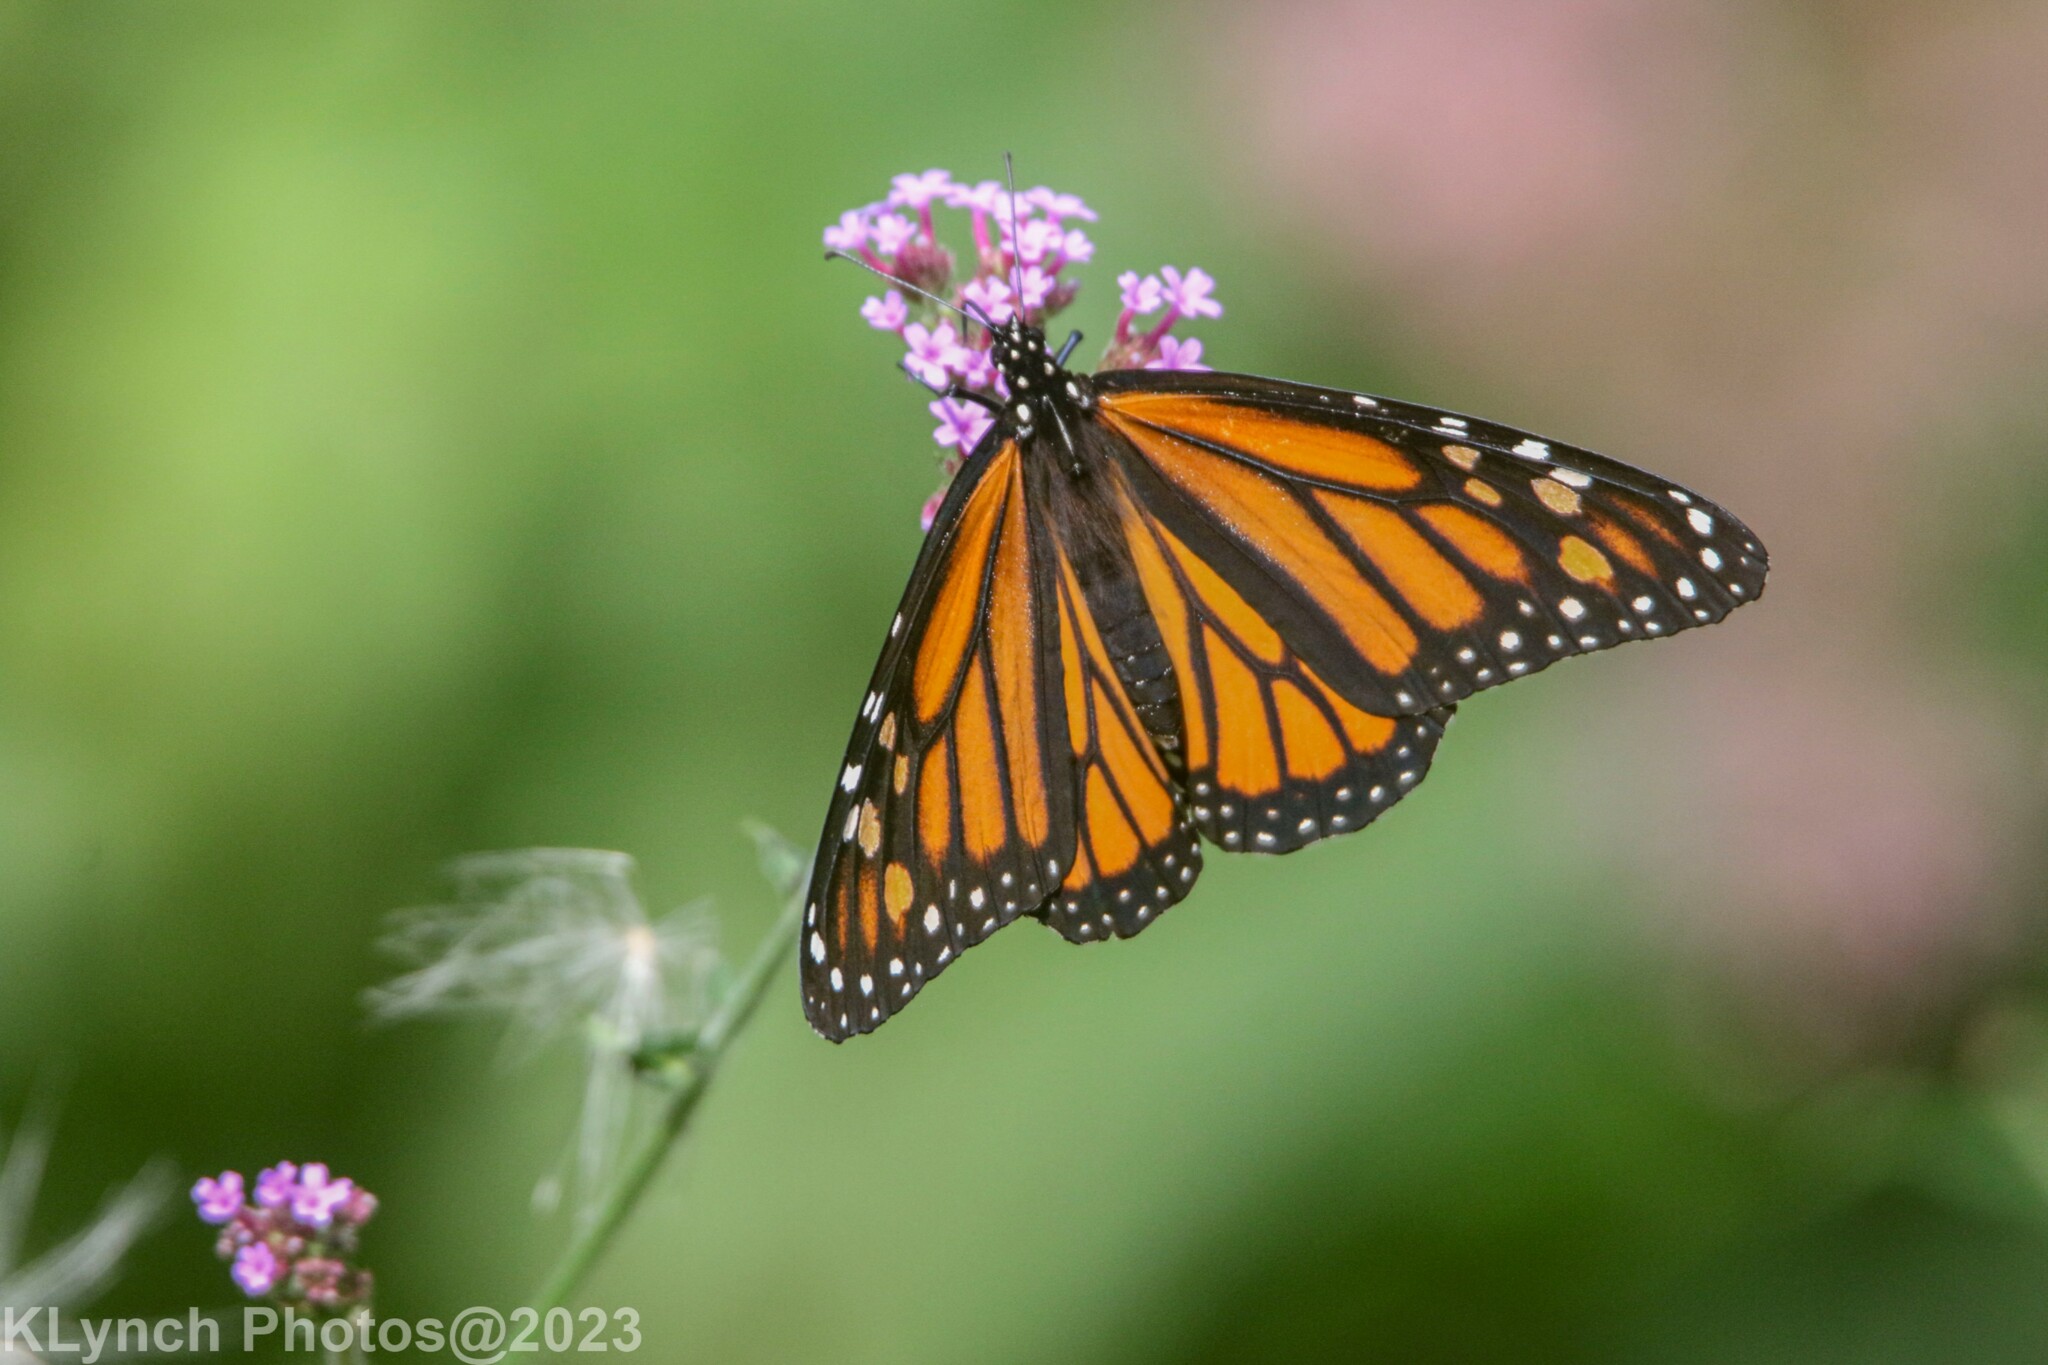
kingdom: Animalia
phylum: Arthropoda
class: Insecta
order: Lepidoptera
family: Nymphalidae
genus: Danaus
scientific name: Danaus plexippus
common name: Monarch
